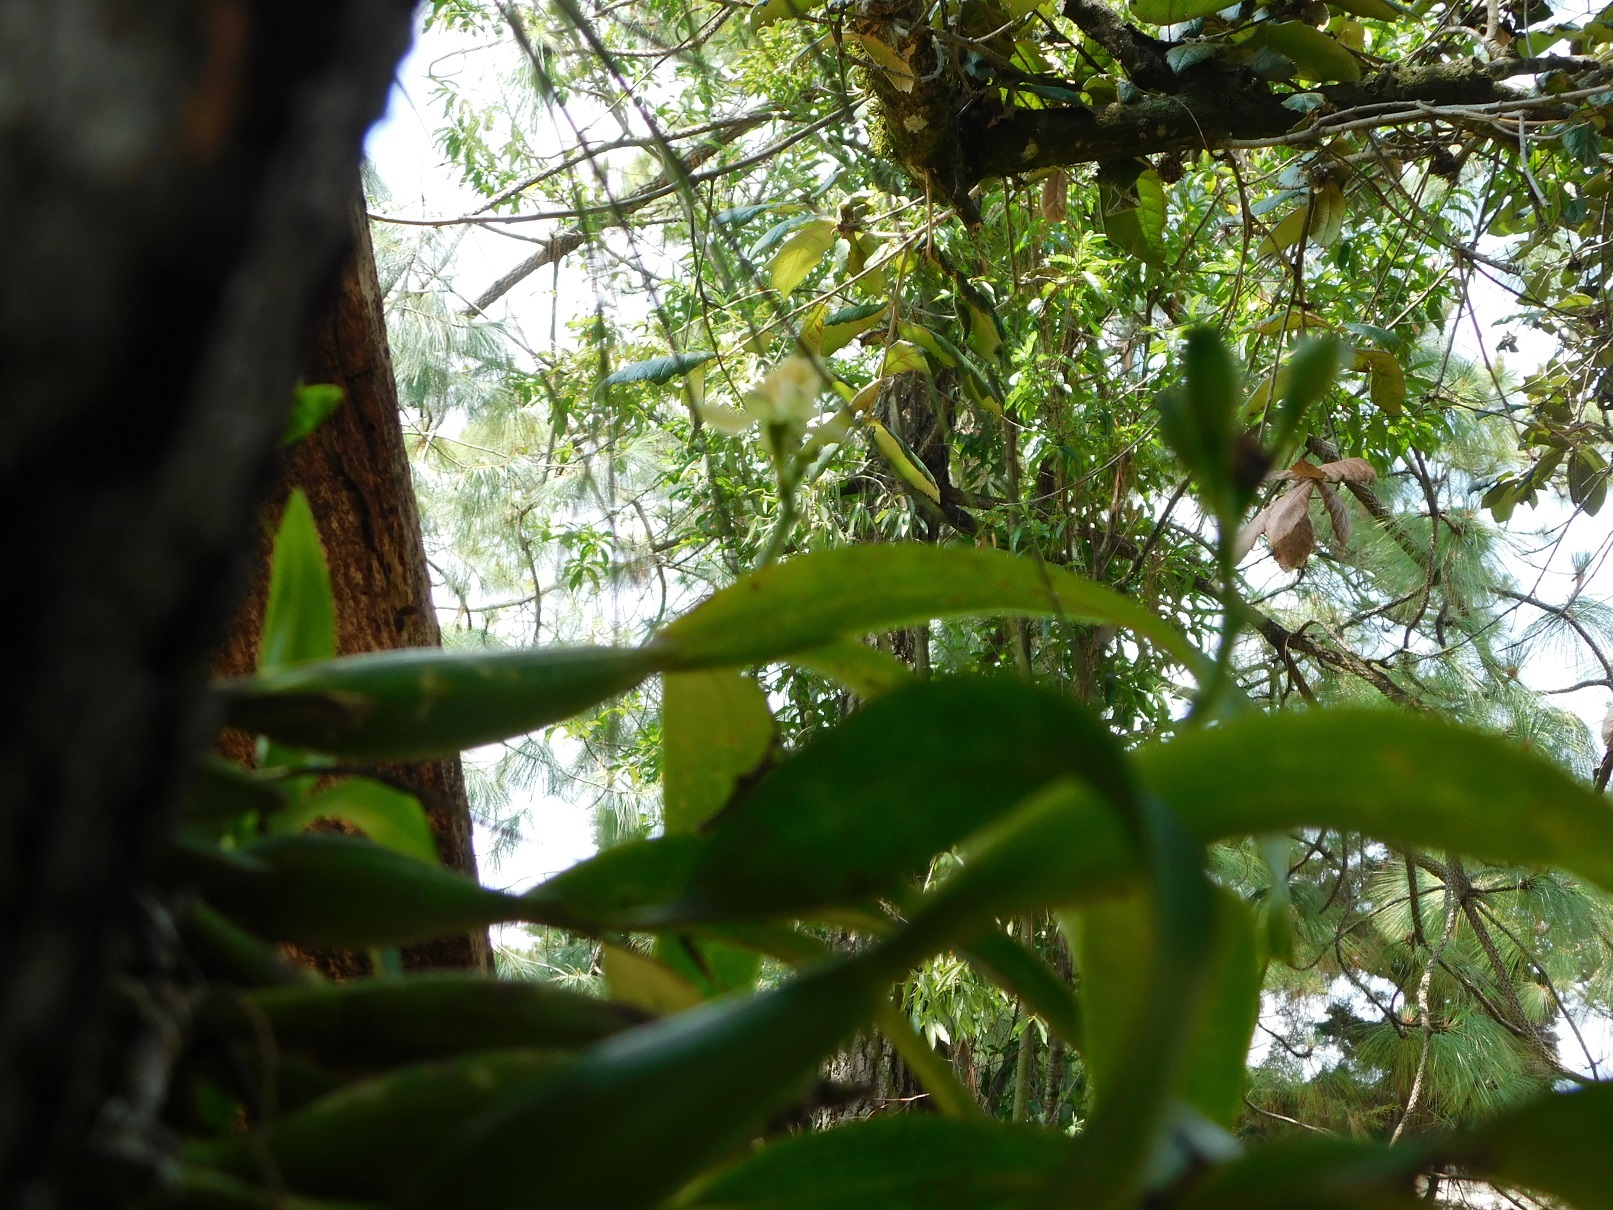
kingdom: Plantae
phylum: Tracheophyta
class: Liliopsida
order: Asparagales
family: Orchidaceae
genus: Prosthechea
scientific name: Prosthechea radiata
